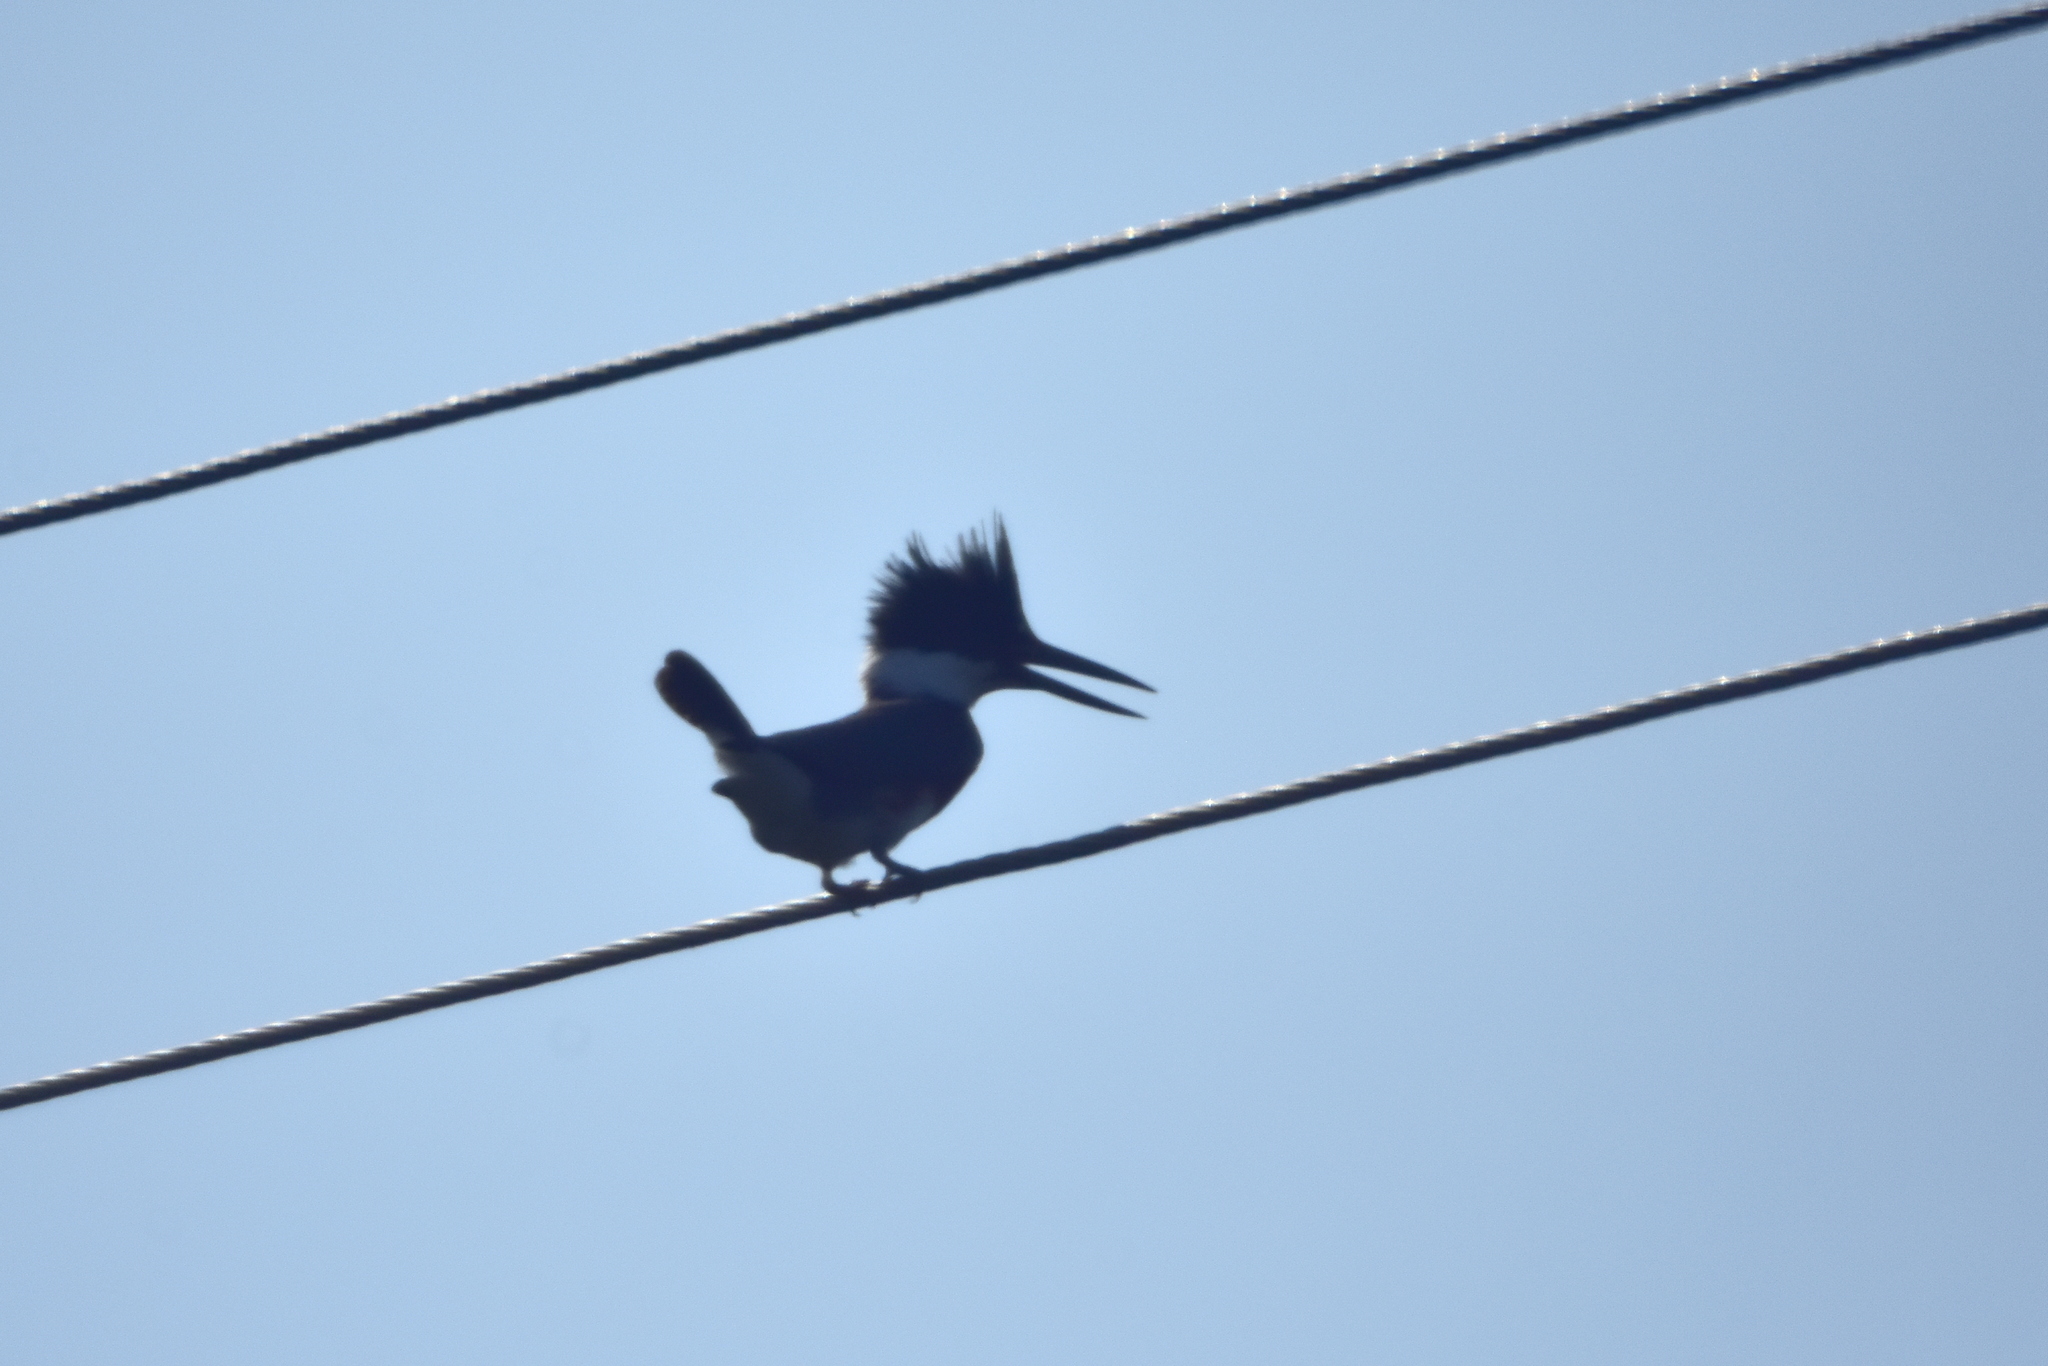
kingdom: Animalia
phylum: Chordata
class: Aves
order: Coraciiformes
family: Alcedinidae
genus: Megaceryle
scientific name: Megaceryle alcyon
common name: Belted kingfisher
